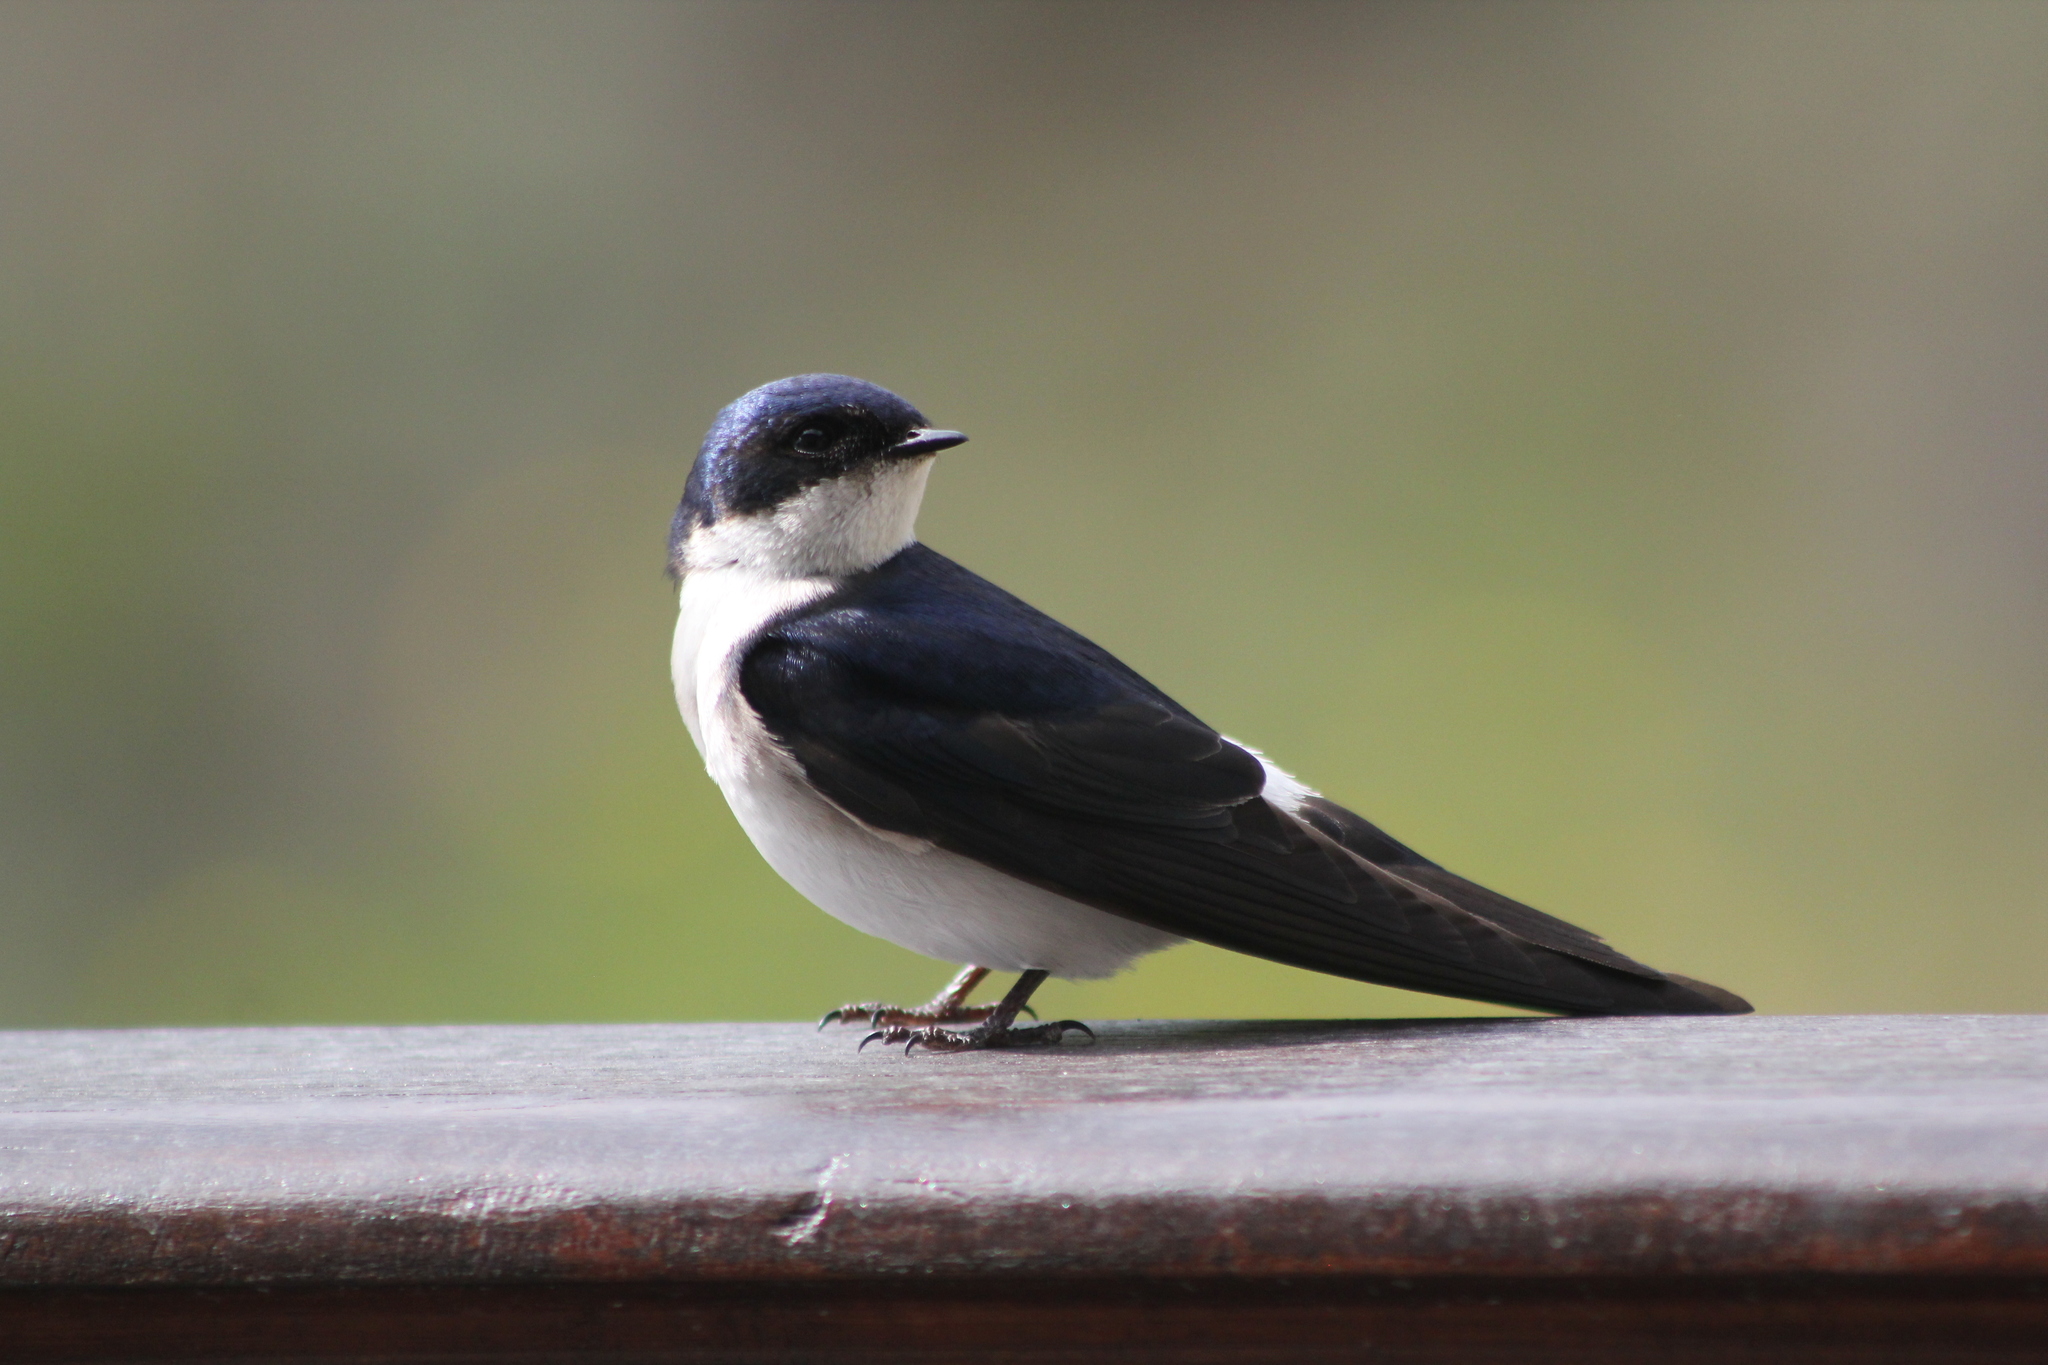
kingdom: Animalia
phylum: Chordata
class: Aves
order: Passeriformes
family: Hirundinidae
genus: Tachycineta
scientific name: Tachycineta leucopyga
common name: Chilean swallow
